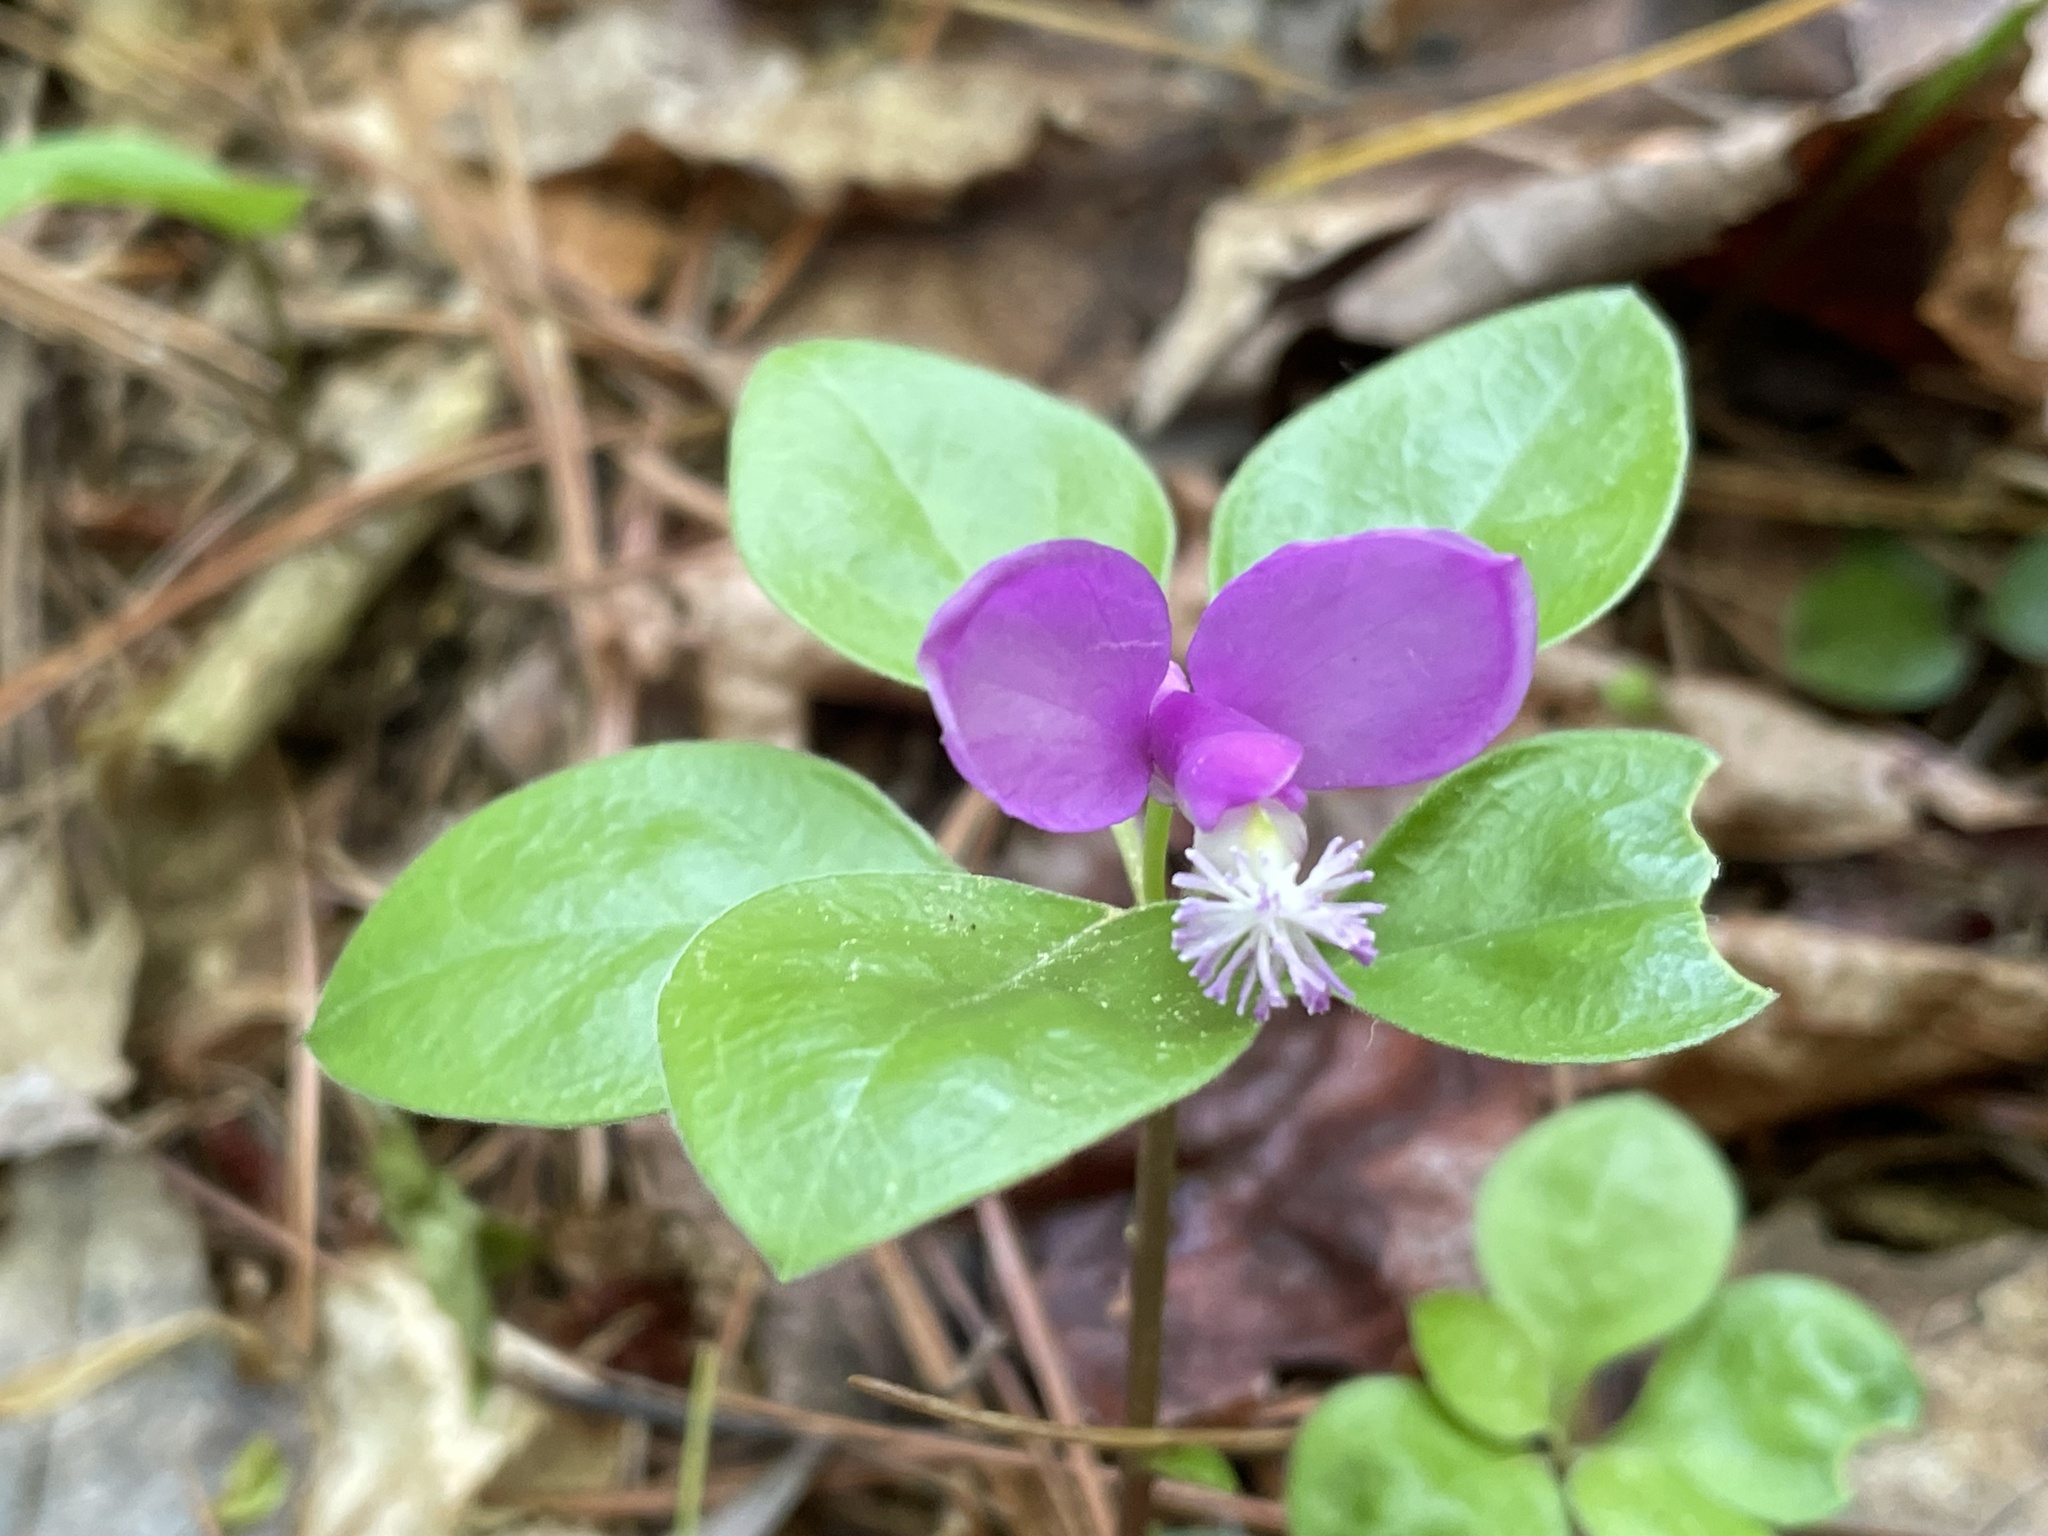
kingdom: Plantae
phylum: Tracheophyta
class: Magnoliopsida
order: Fabales
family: Polygalaceae
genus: Polygaloides
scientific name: Polygaloides paucifolia
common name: Bird-on-the-wing
